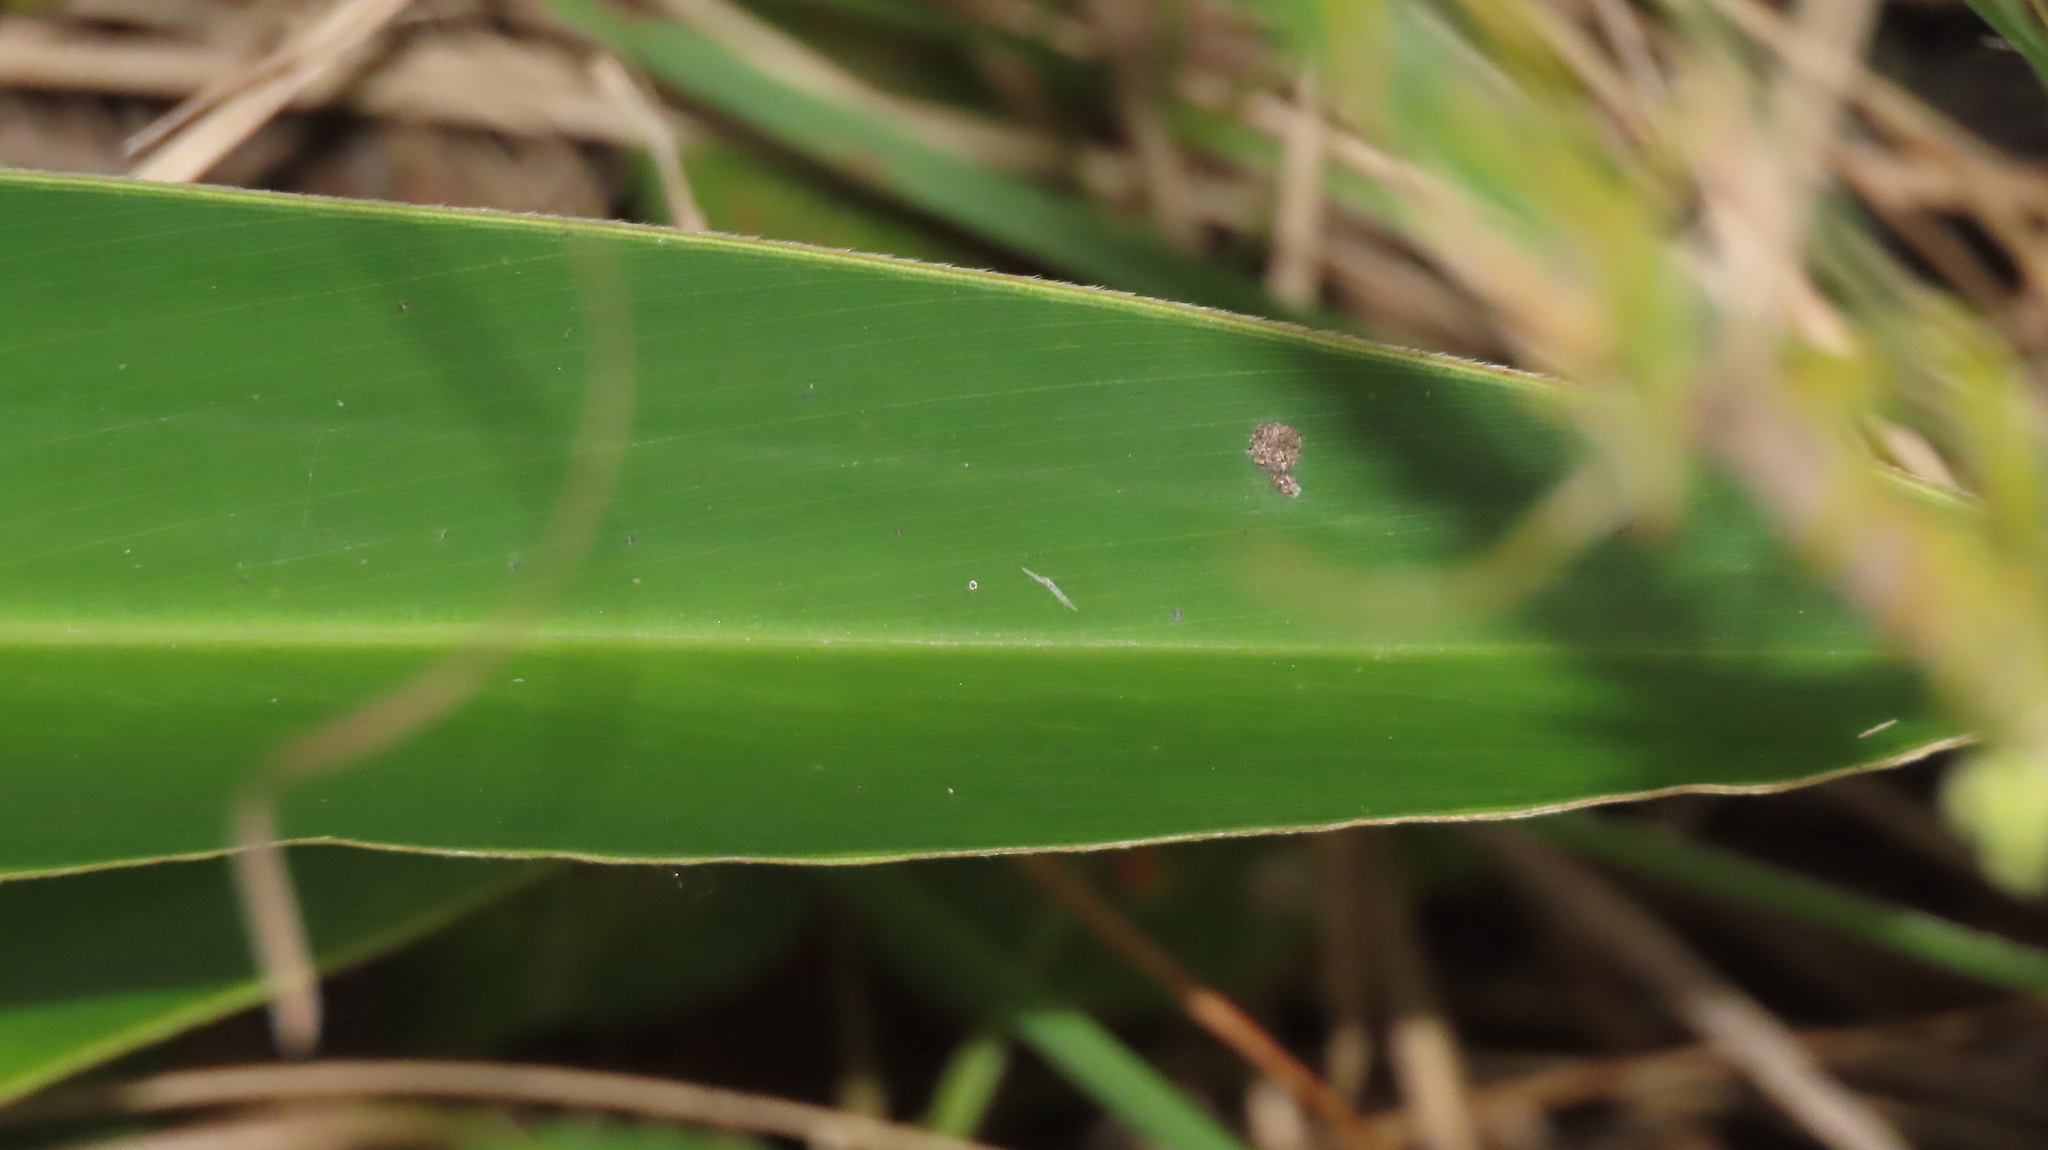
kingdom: Plantae
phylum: Tracheophyta
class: Liliopsida
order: Zingiberales
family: Zingiberaceae
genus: Alpinia
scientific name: Alpinia zerumbet
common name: Shellplant
